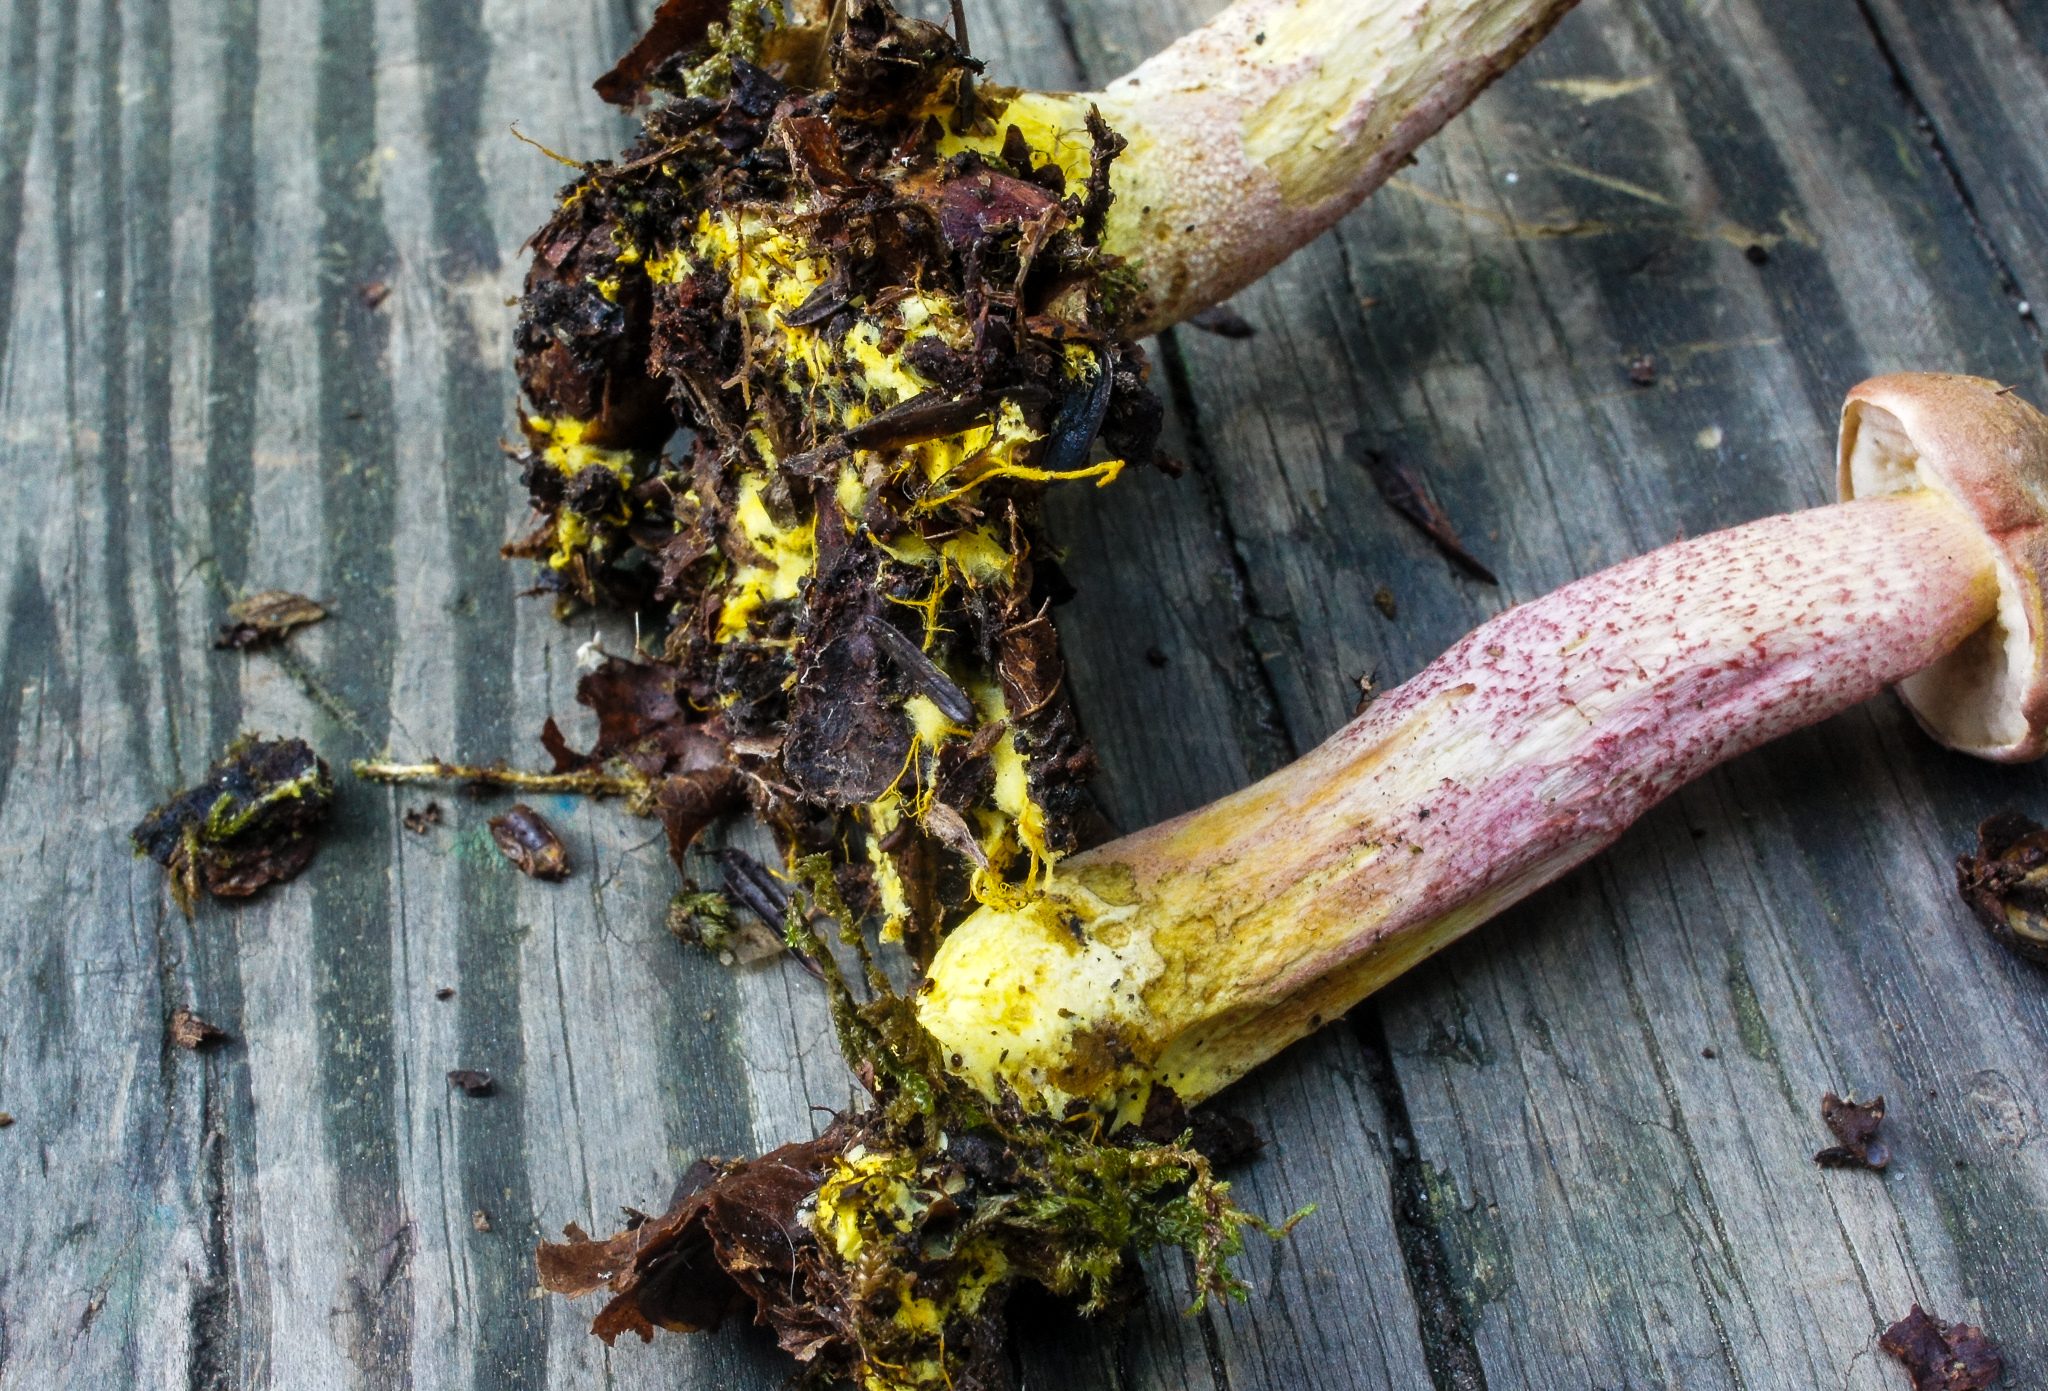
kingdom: Fungi
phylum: Basidiomycota
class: Agaricomycetes
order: Boletales
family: Boletaceae
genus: Harrya
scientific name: Harrya chromipes
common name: Chrome-footed bolete
